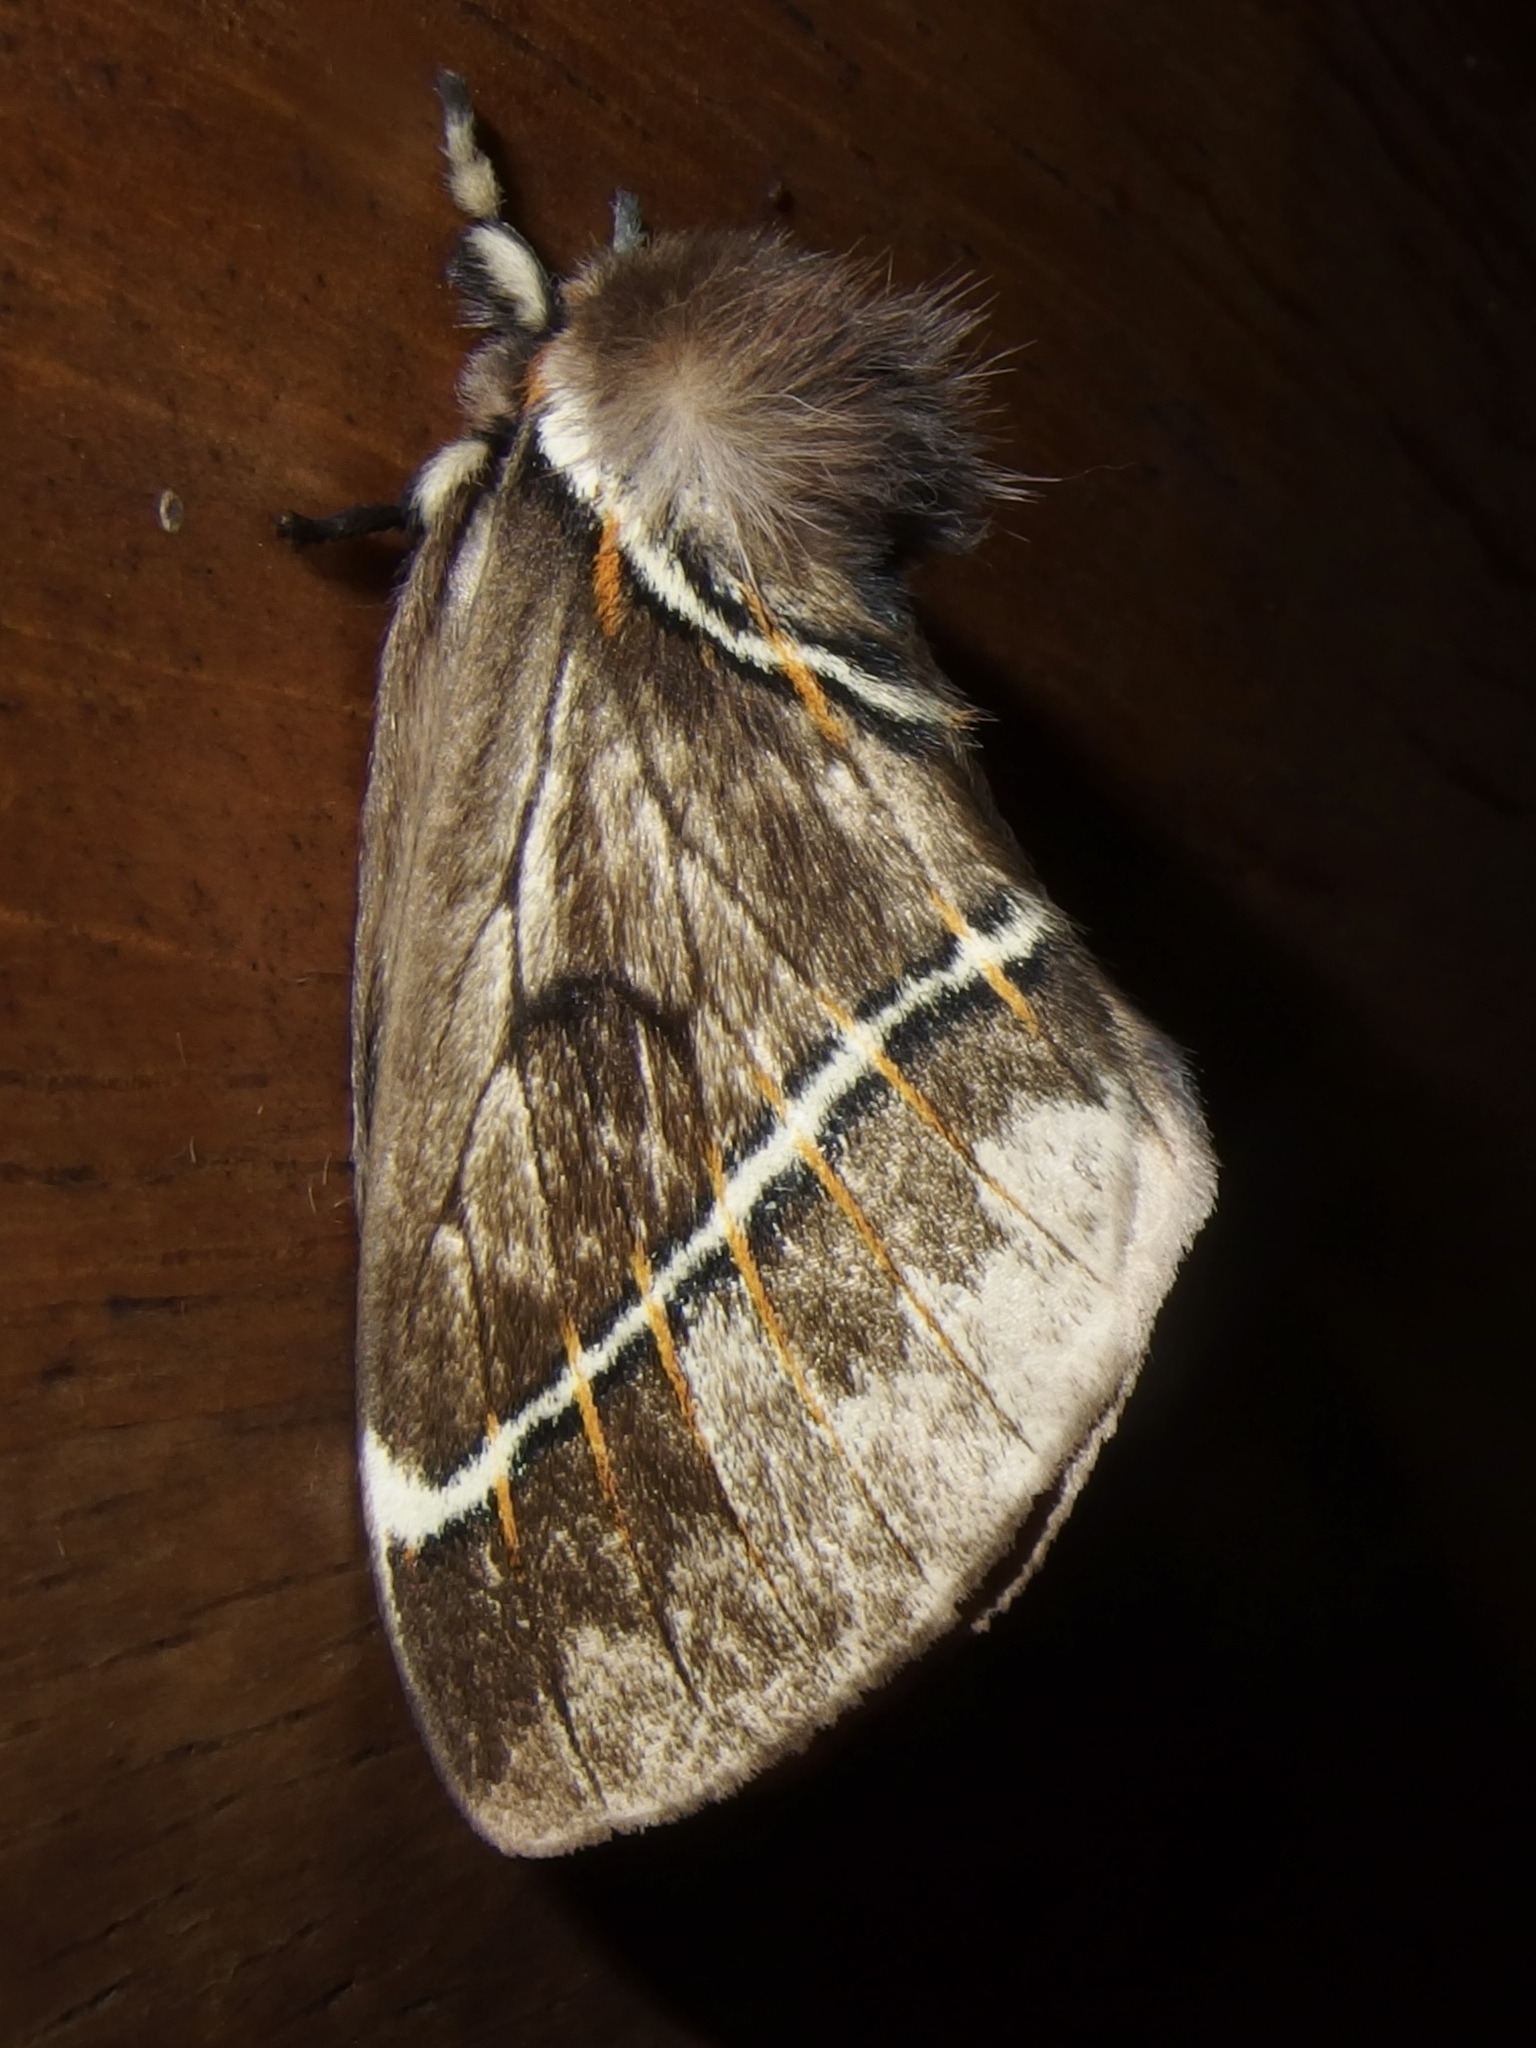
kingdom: Animalia
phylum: Arthropoda
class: Insecta
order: Lepidoptera
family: Saturniidae
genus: Pseudodirphia
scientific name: Pseudodirphia biremis
